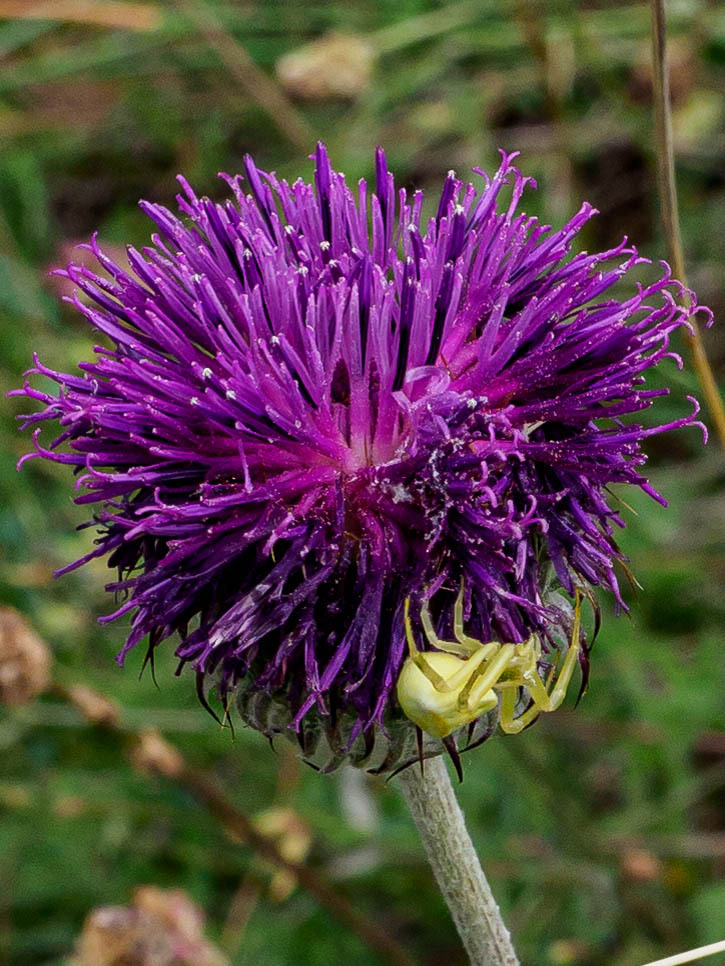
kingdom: Animalia
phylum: Arthropoda
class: Arachnida
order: Araneae
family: Thomisidae
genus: Thomisus
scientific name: Thomisus onustus
